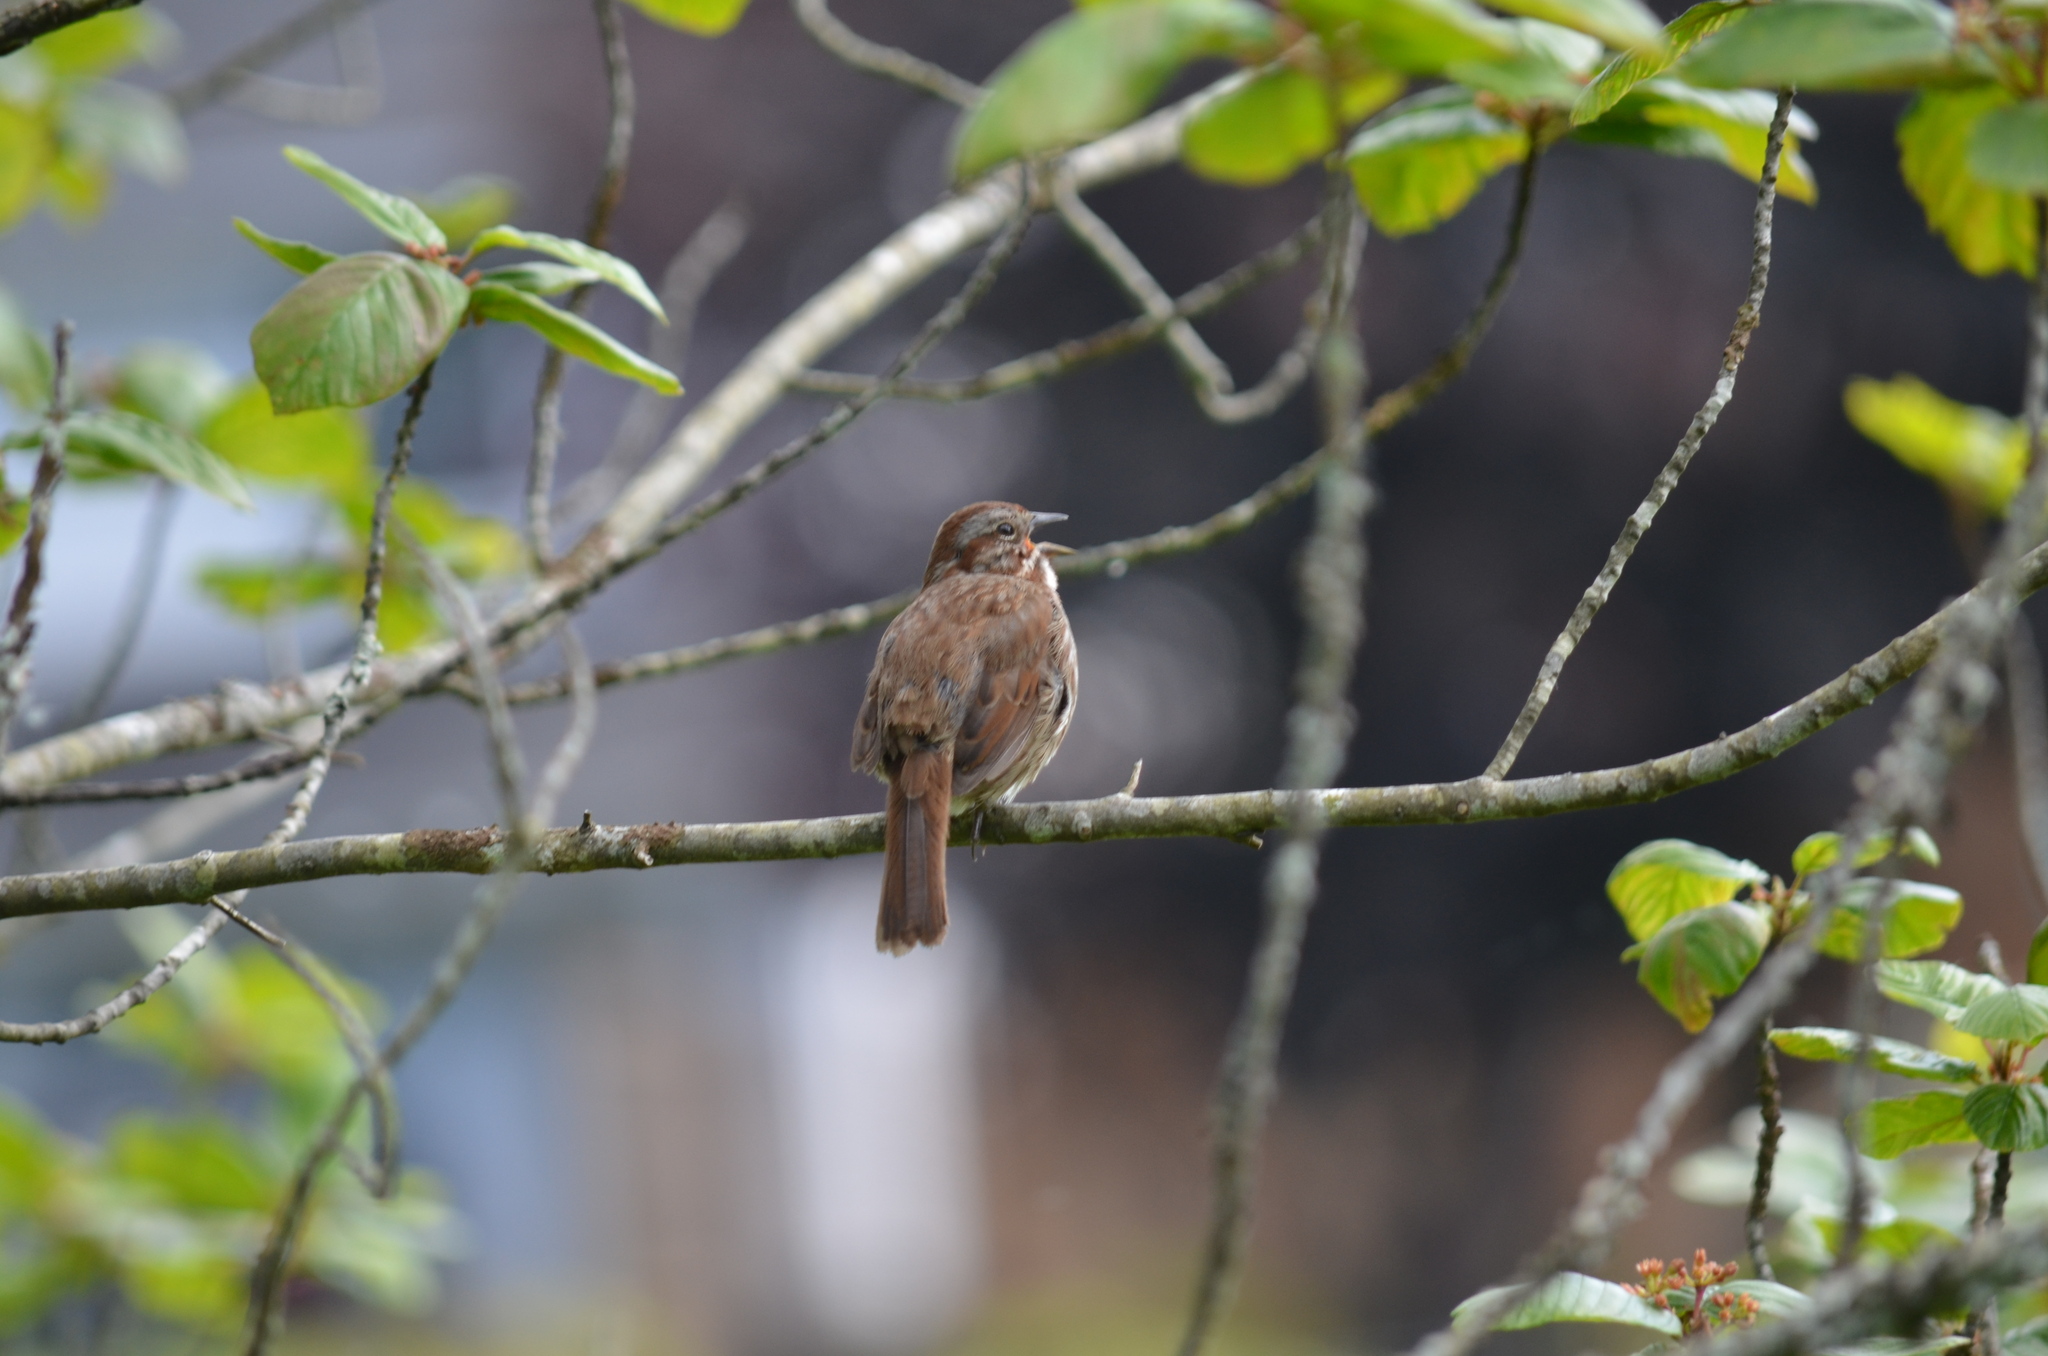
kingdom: Animalia
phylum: Chordata
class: Aves
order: Passeriformes
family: Passerellidae
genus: Melospiza
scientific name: Melospiza melodia
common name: Song sparrow
